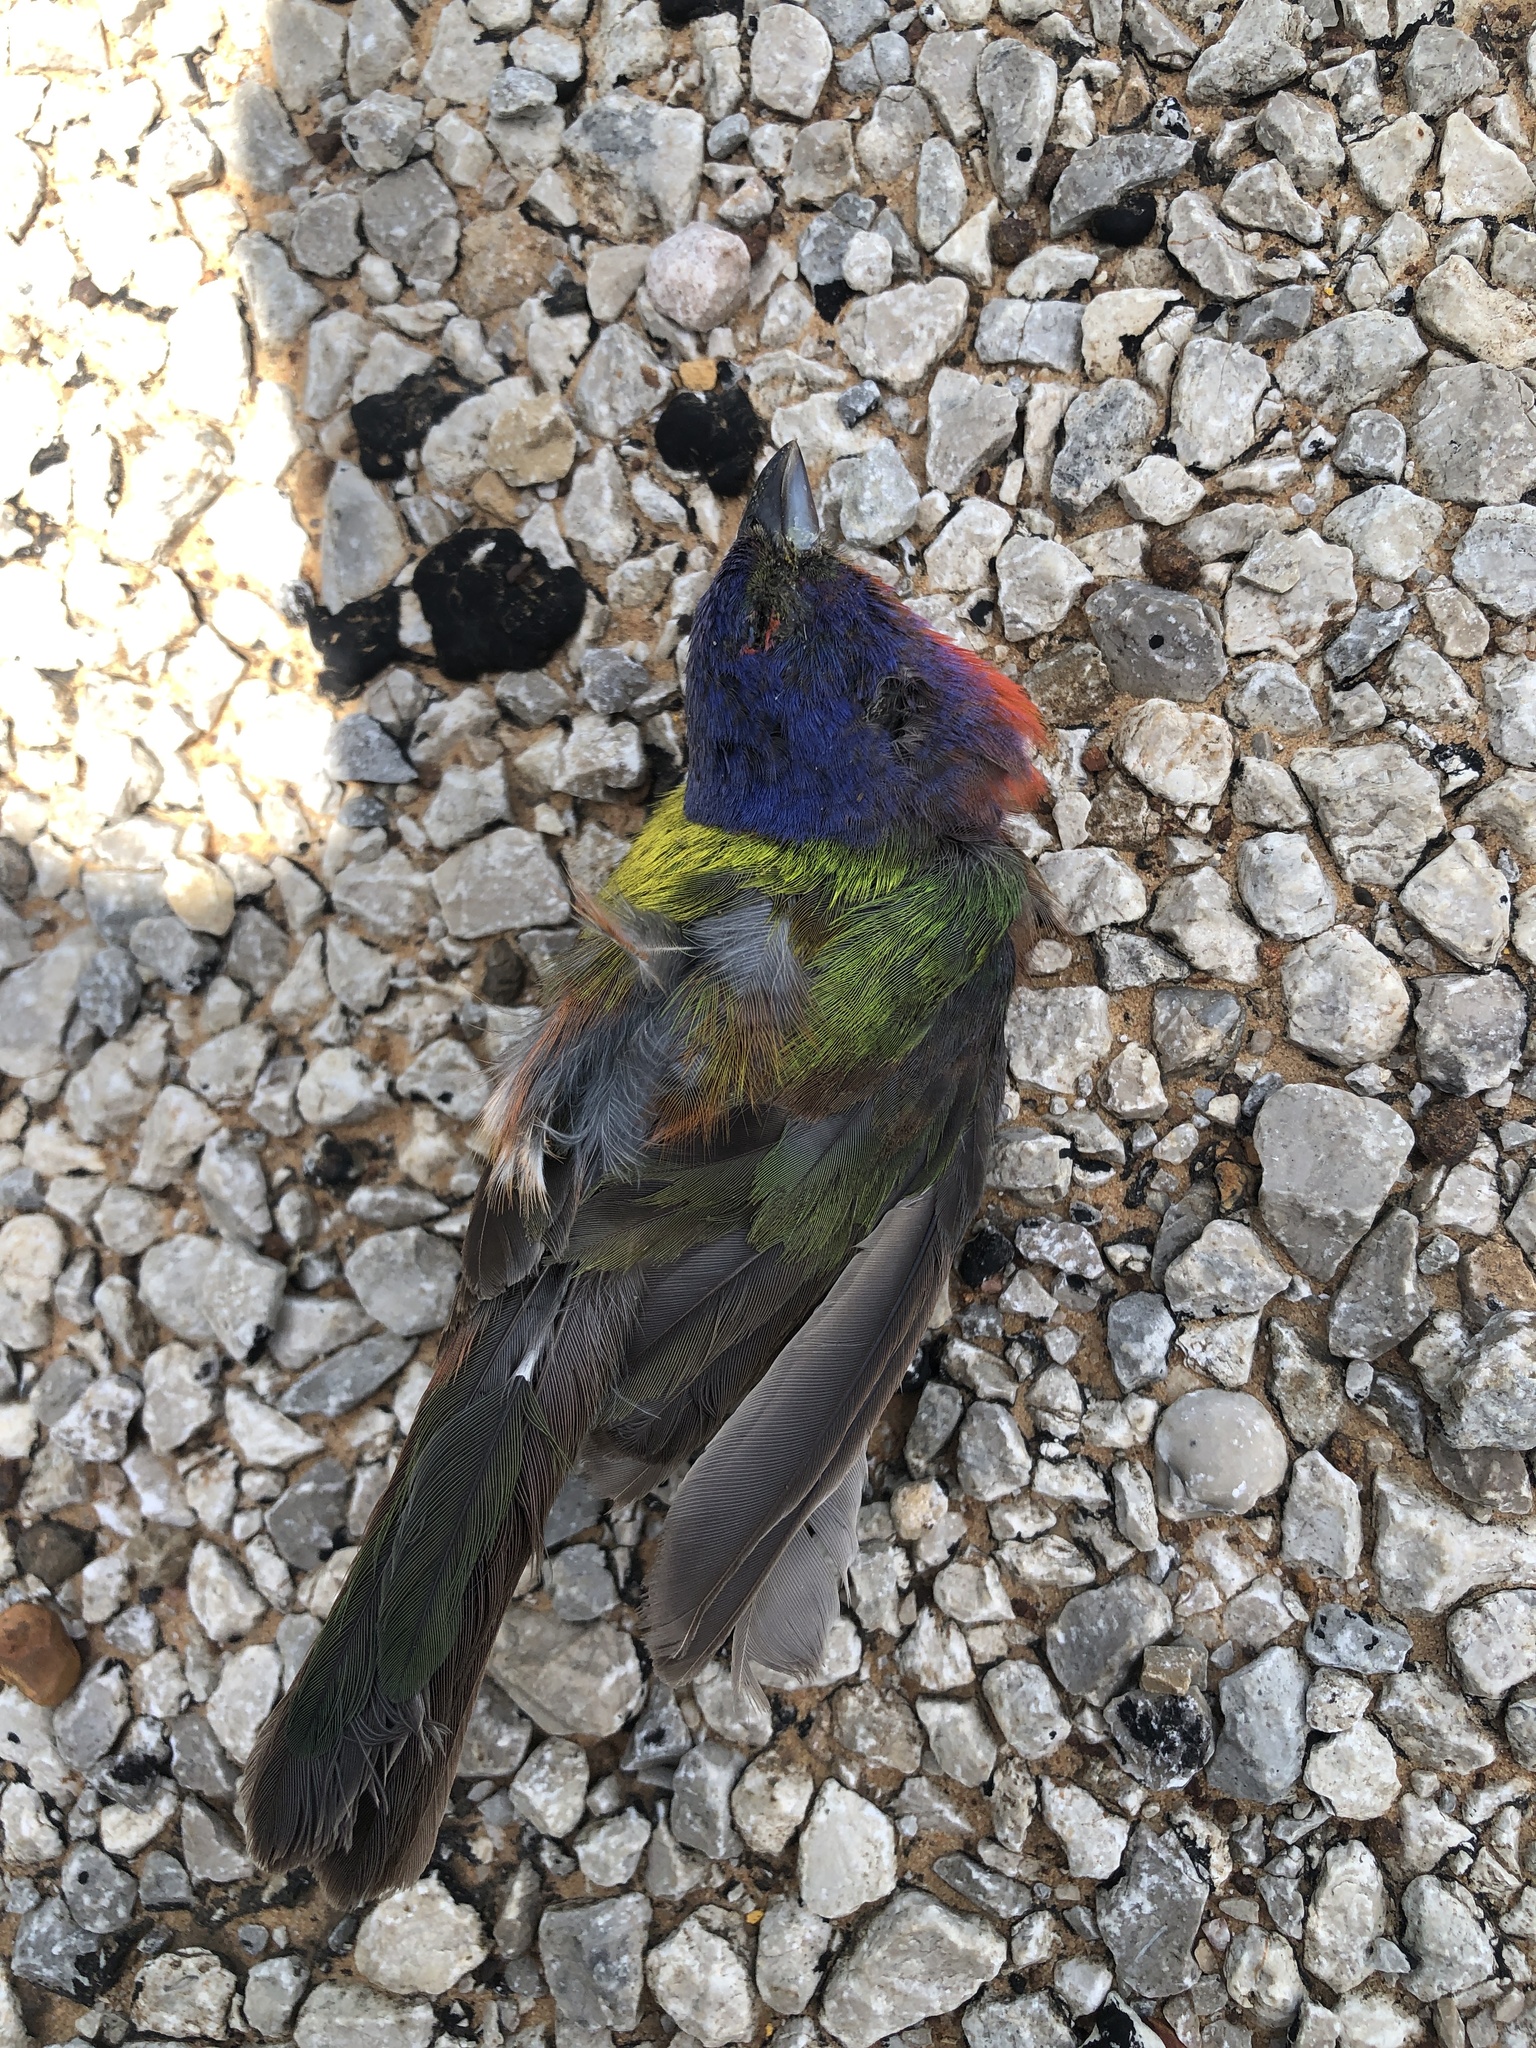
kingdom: Animalia
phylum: Chordata
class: Aves
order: Passeriformes
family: Cardinalidae
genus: Passerina
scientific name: Passerina ciris
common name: Painted bunting
